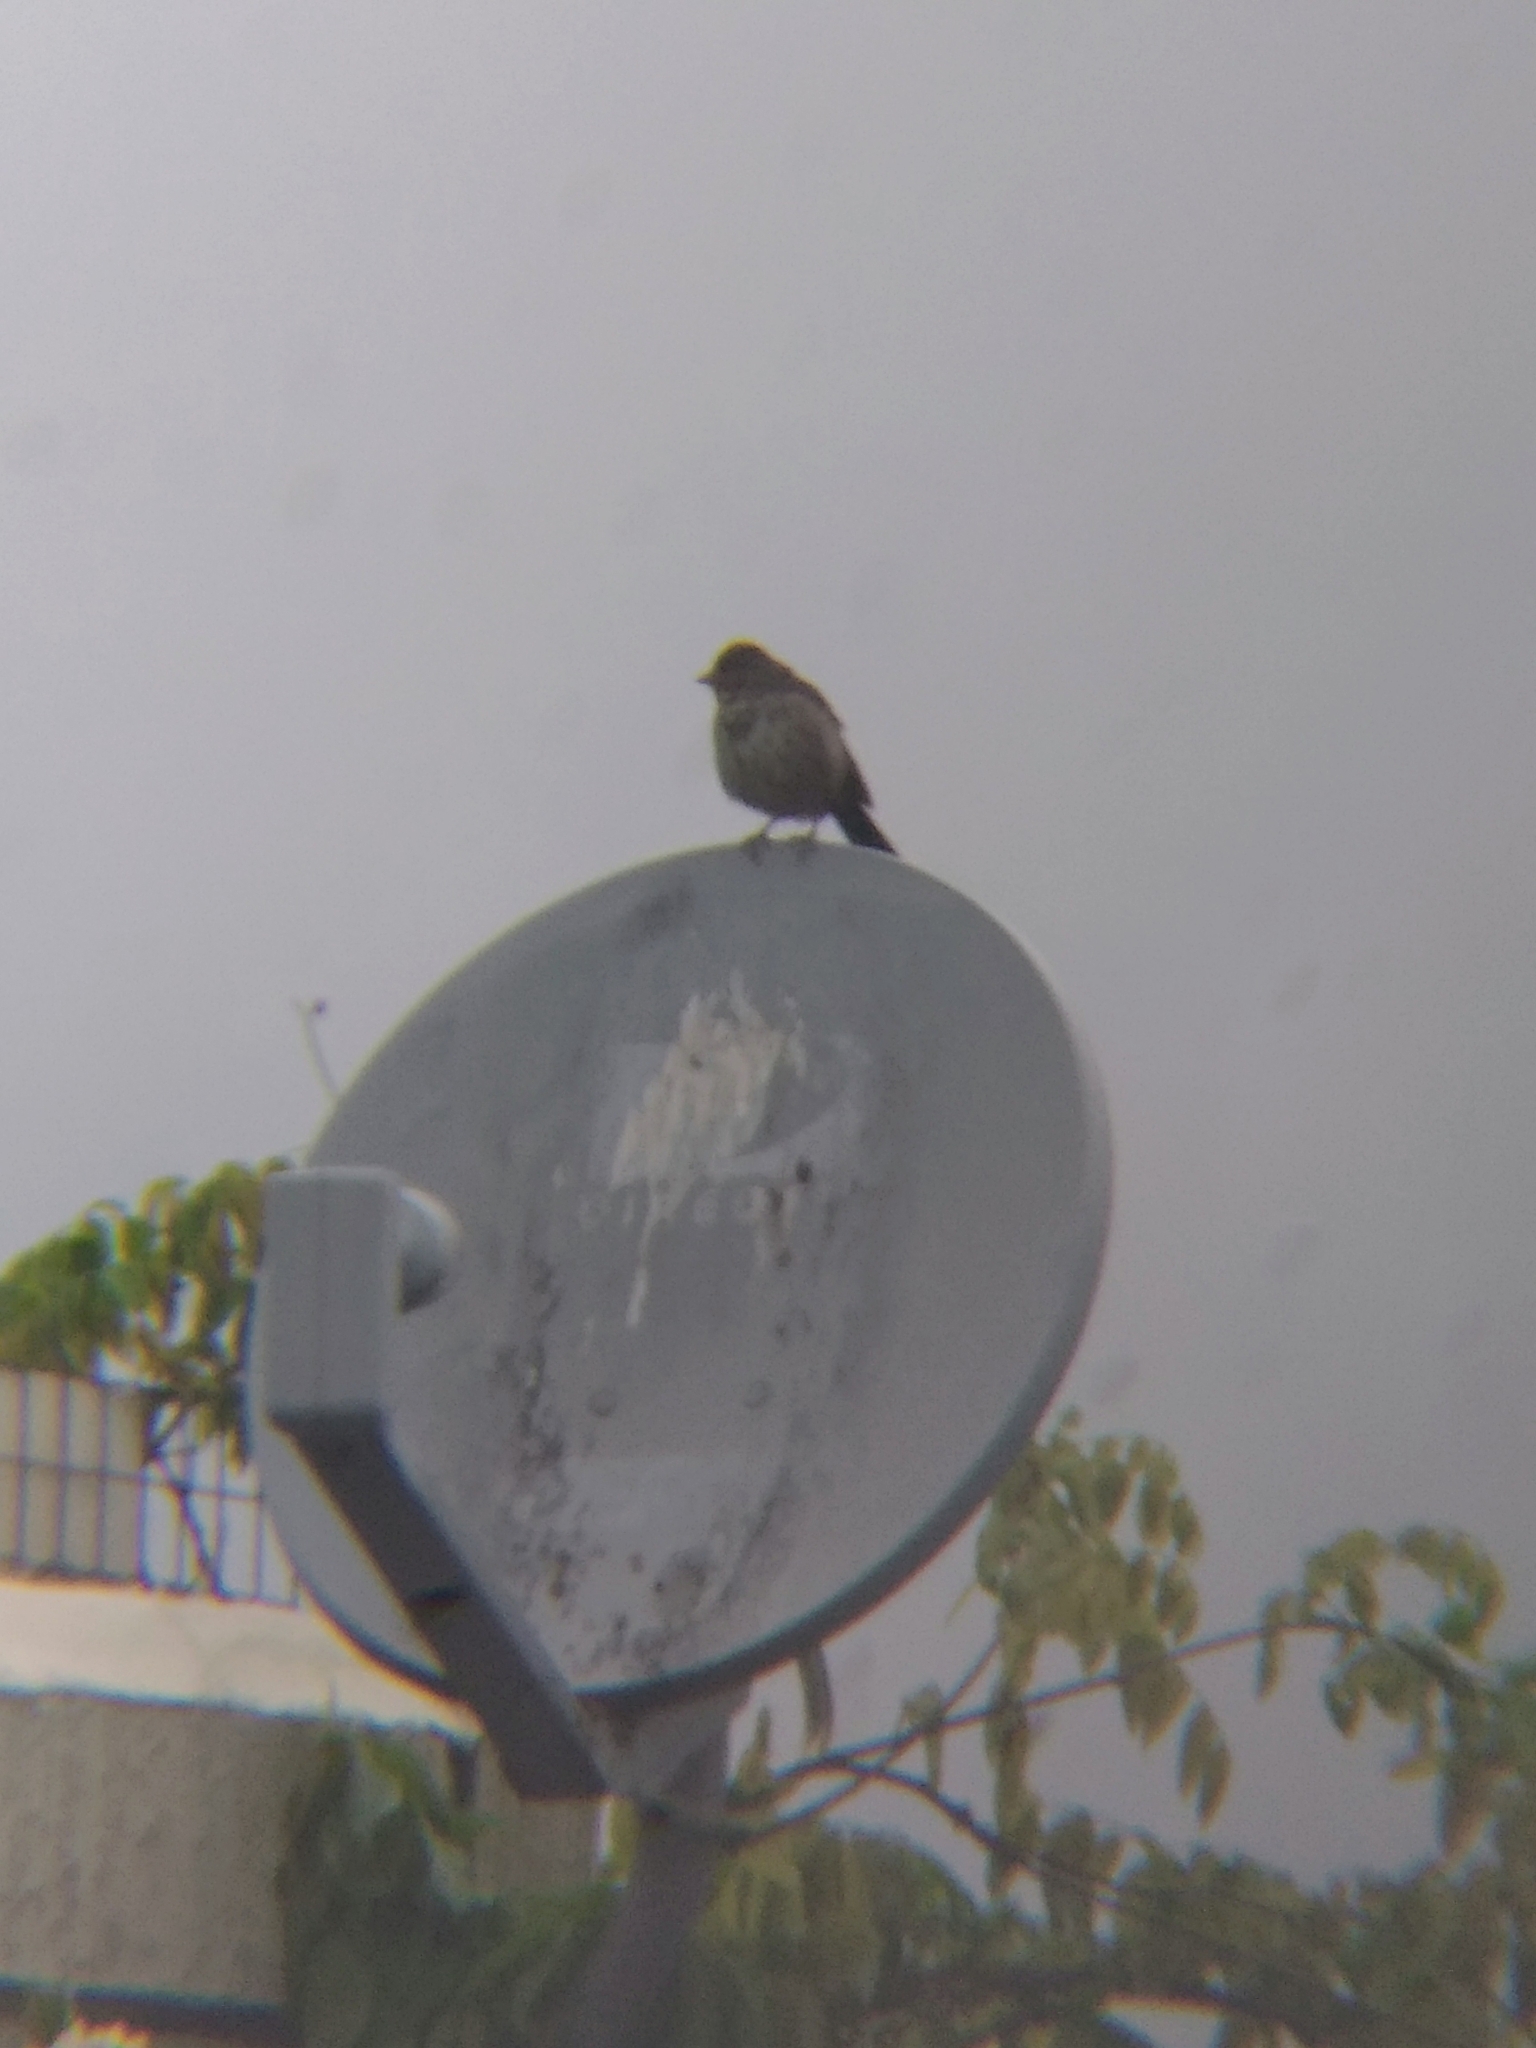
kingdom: Animalia
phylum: Chordata
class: Aves
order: Passeriformes
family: Passerellidae
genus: Melozone
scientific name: Melozone crissalis
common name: California towhee
